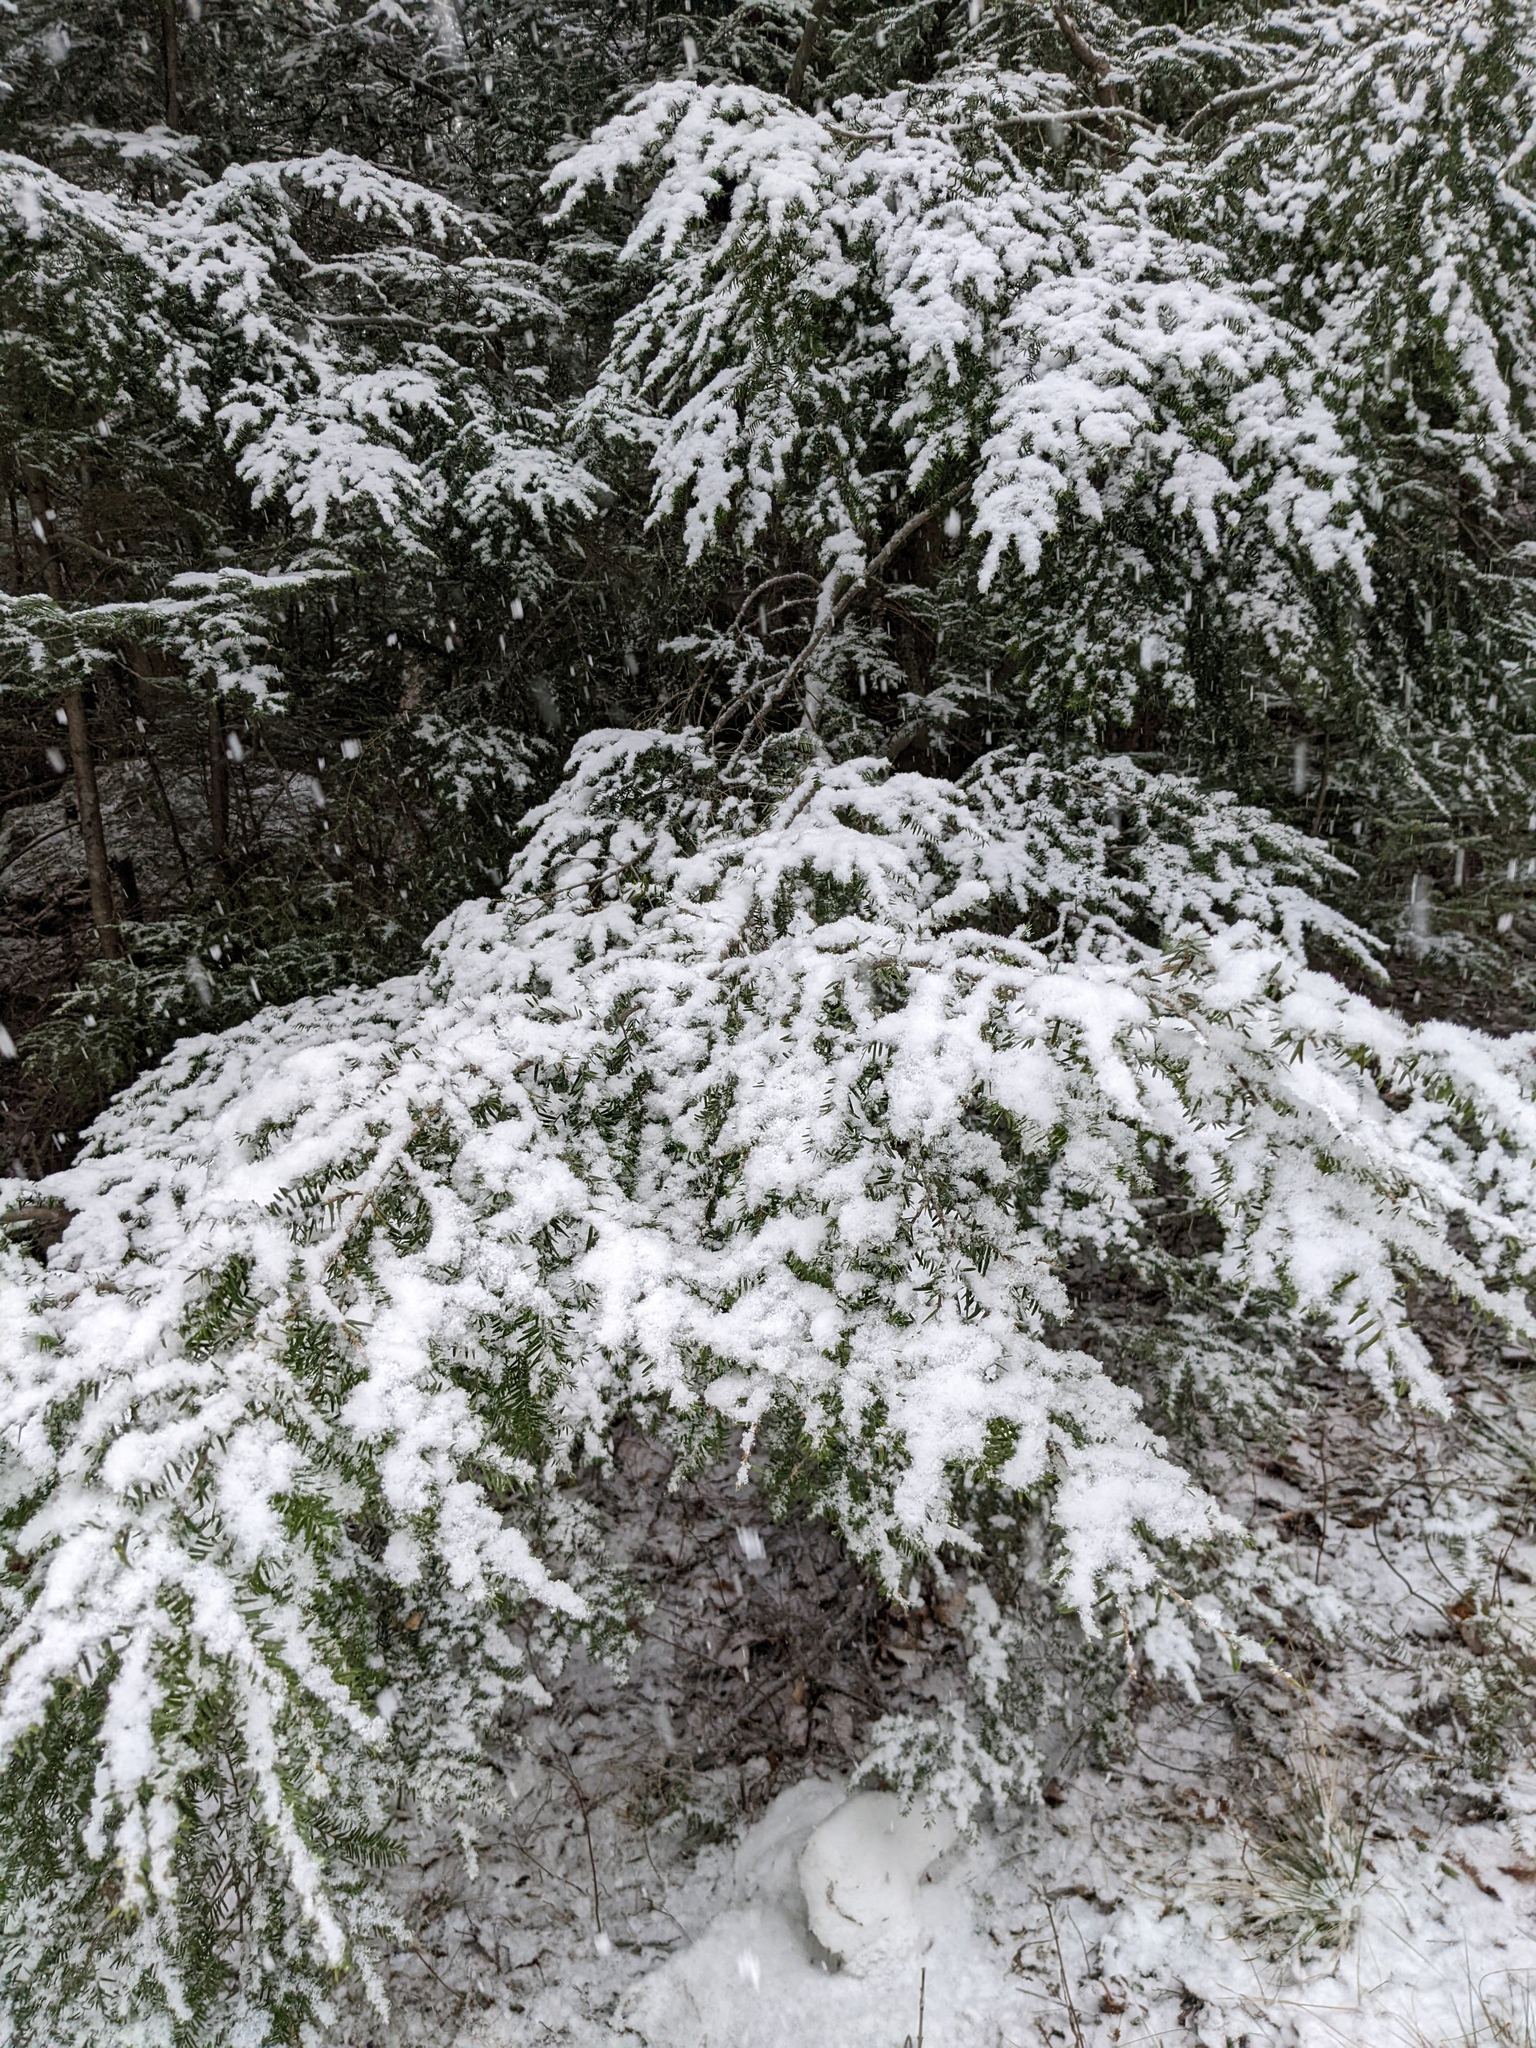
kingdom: Plantae
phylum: Tracheophyta
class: Pinopsida
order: Pinales
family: Pinaceae
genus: Tsuga
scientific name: Tsuga canadensis
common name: Eastern hemlock
